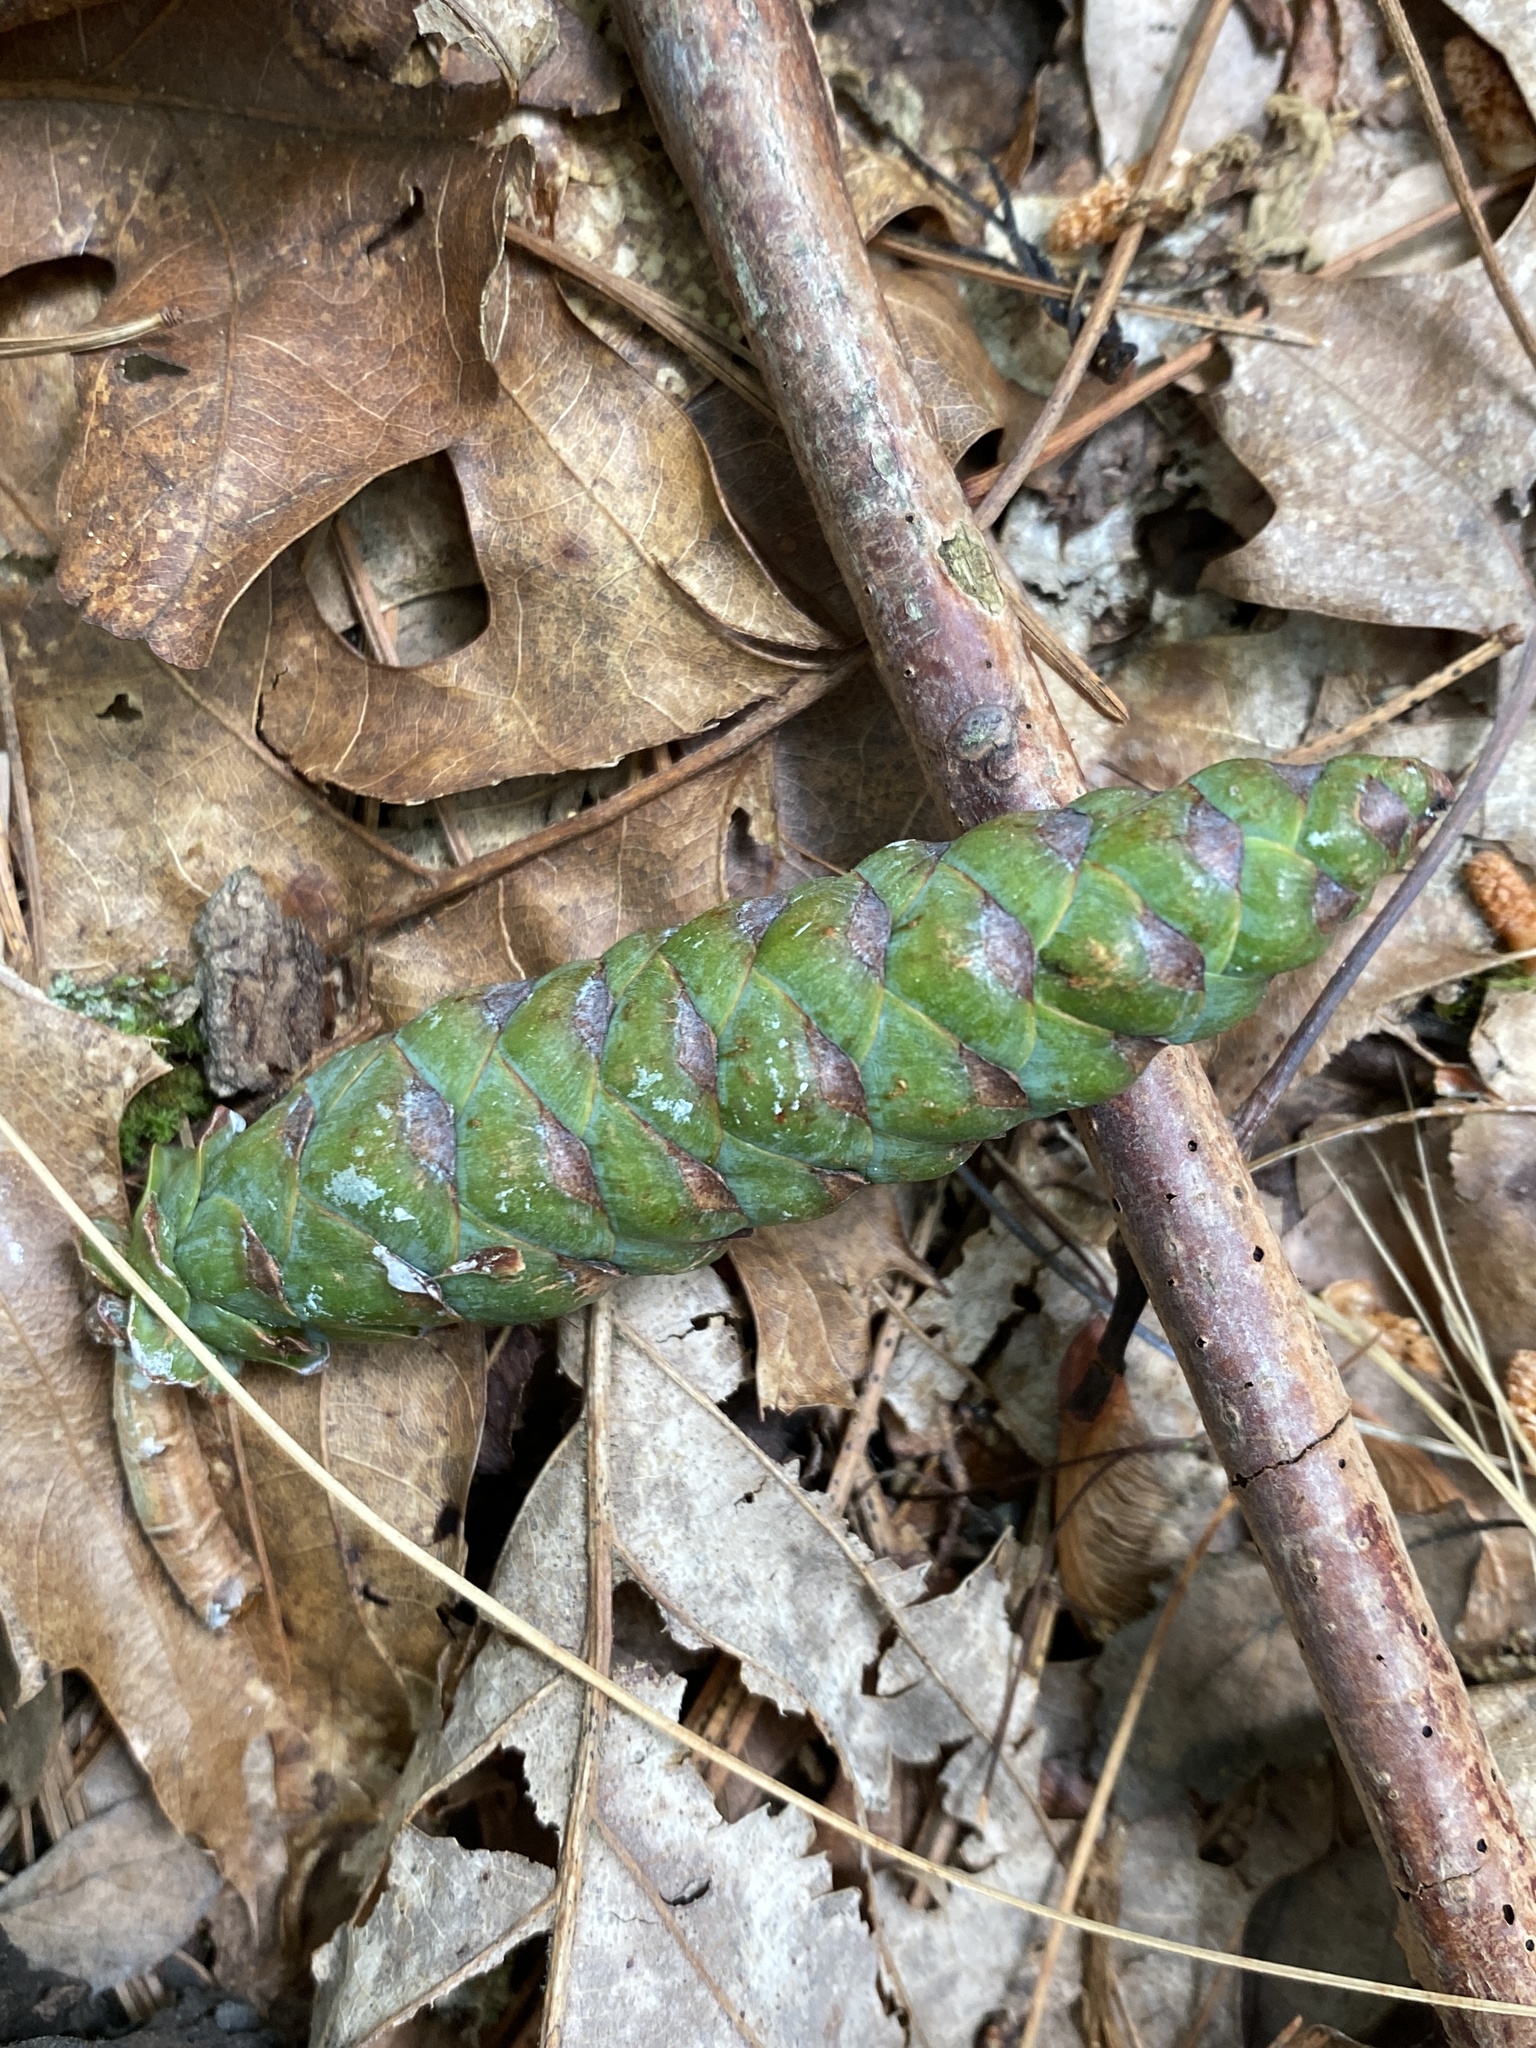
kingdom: Plantae
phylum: Tracheophyta
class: Pinopsida
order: Pinales
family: Pinaceae
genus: Pinus
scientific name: Pinus strobus
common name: Weymouth pine
